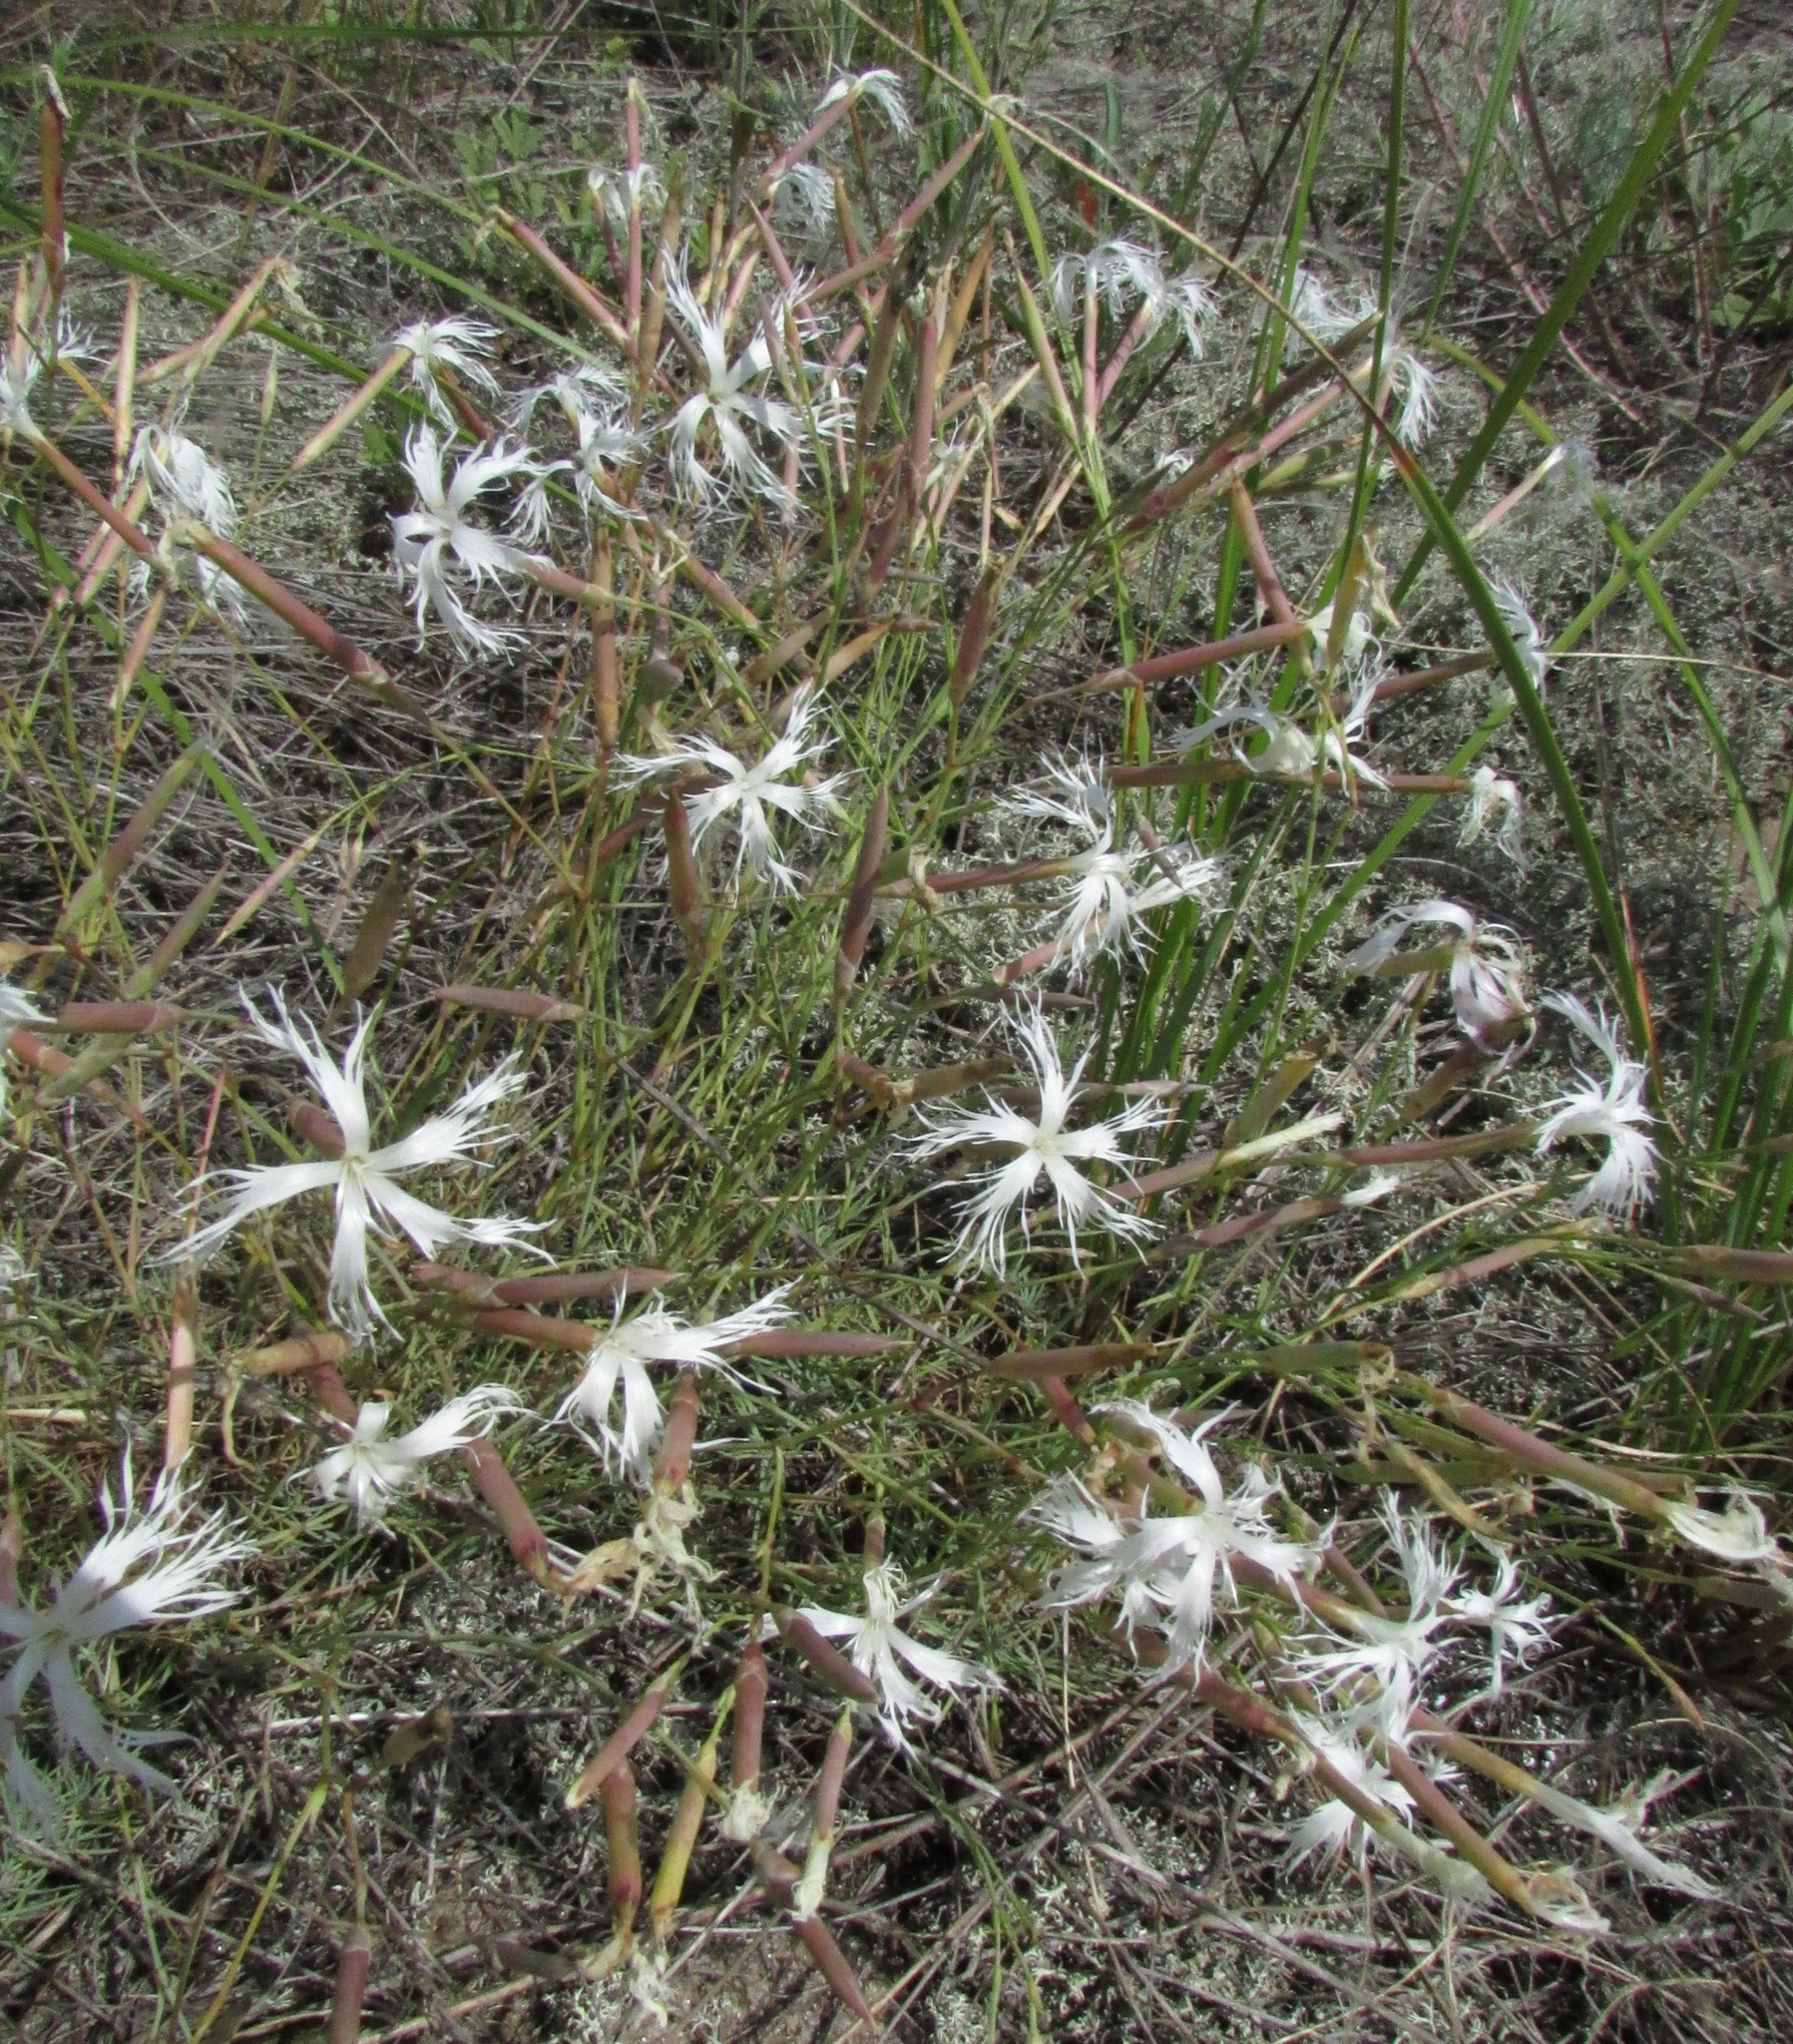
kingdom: Plantae
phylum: Tracheophyta
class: Magnoliopsida
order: Caryophyllales
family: Caryophyllaceae
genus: Dianthus
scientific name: Dianthus volgicus
